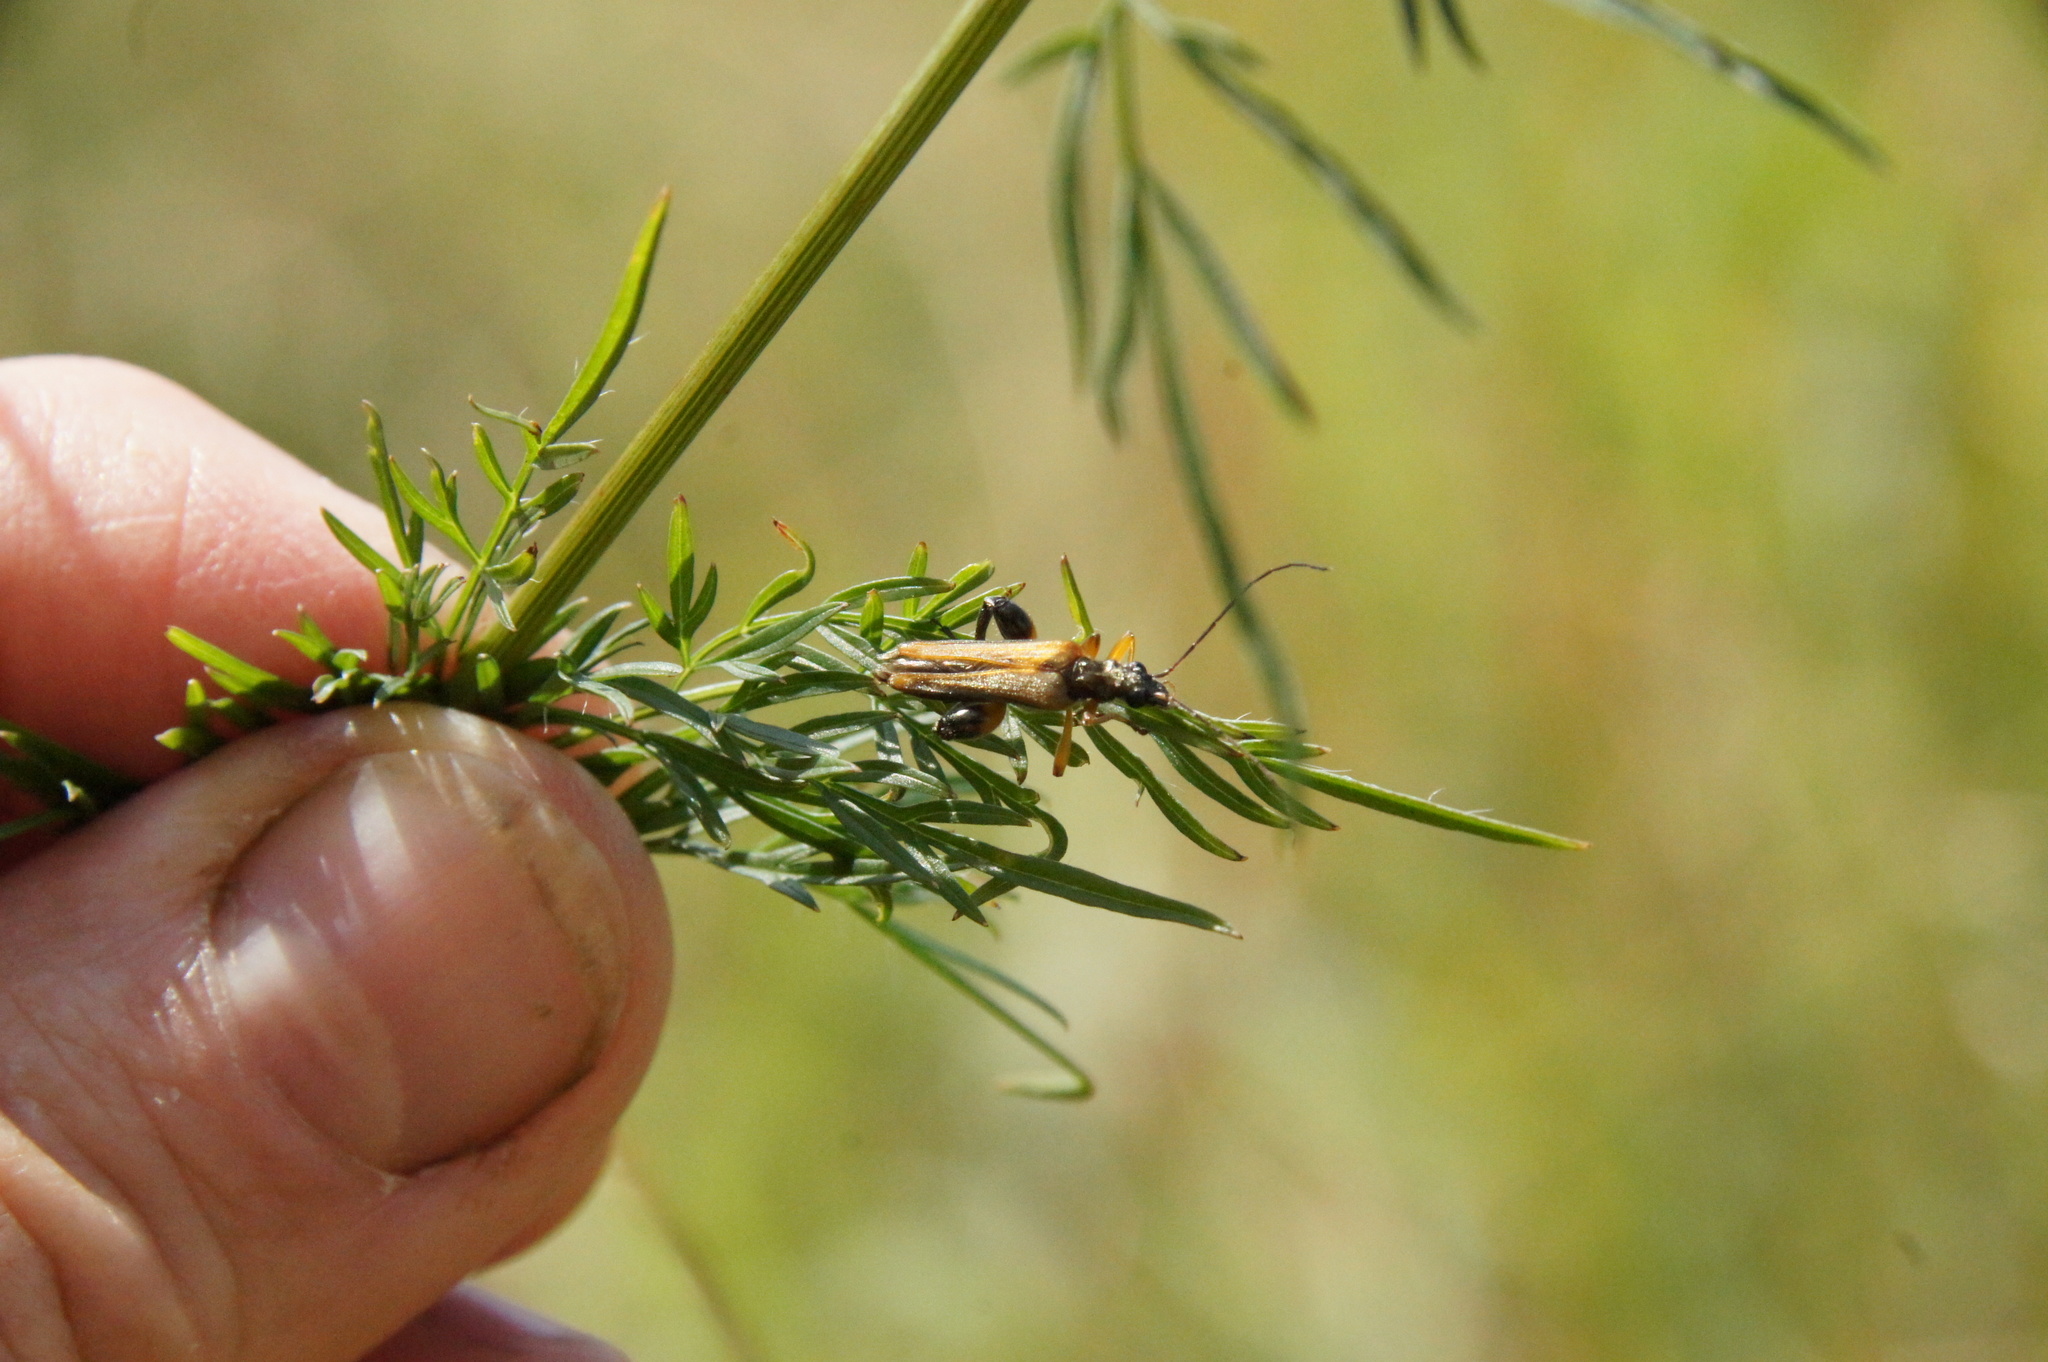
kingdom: Animalia
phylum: Arthropoda
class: Insecta
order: Coleoptera
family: Oedemeridae
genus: Oedemera
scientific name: Oedemera podagrariae
